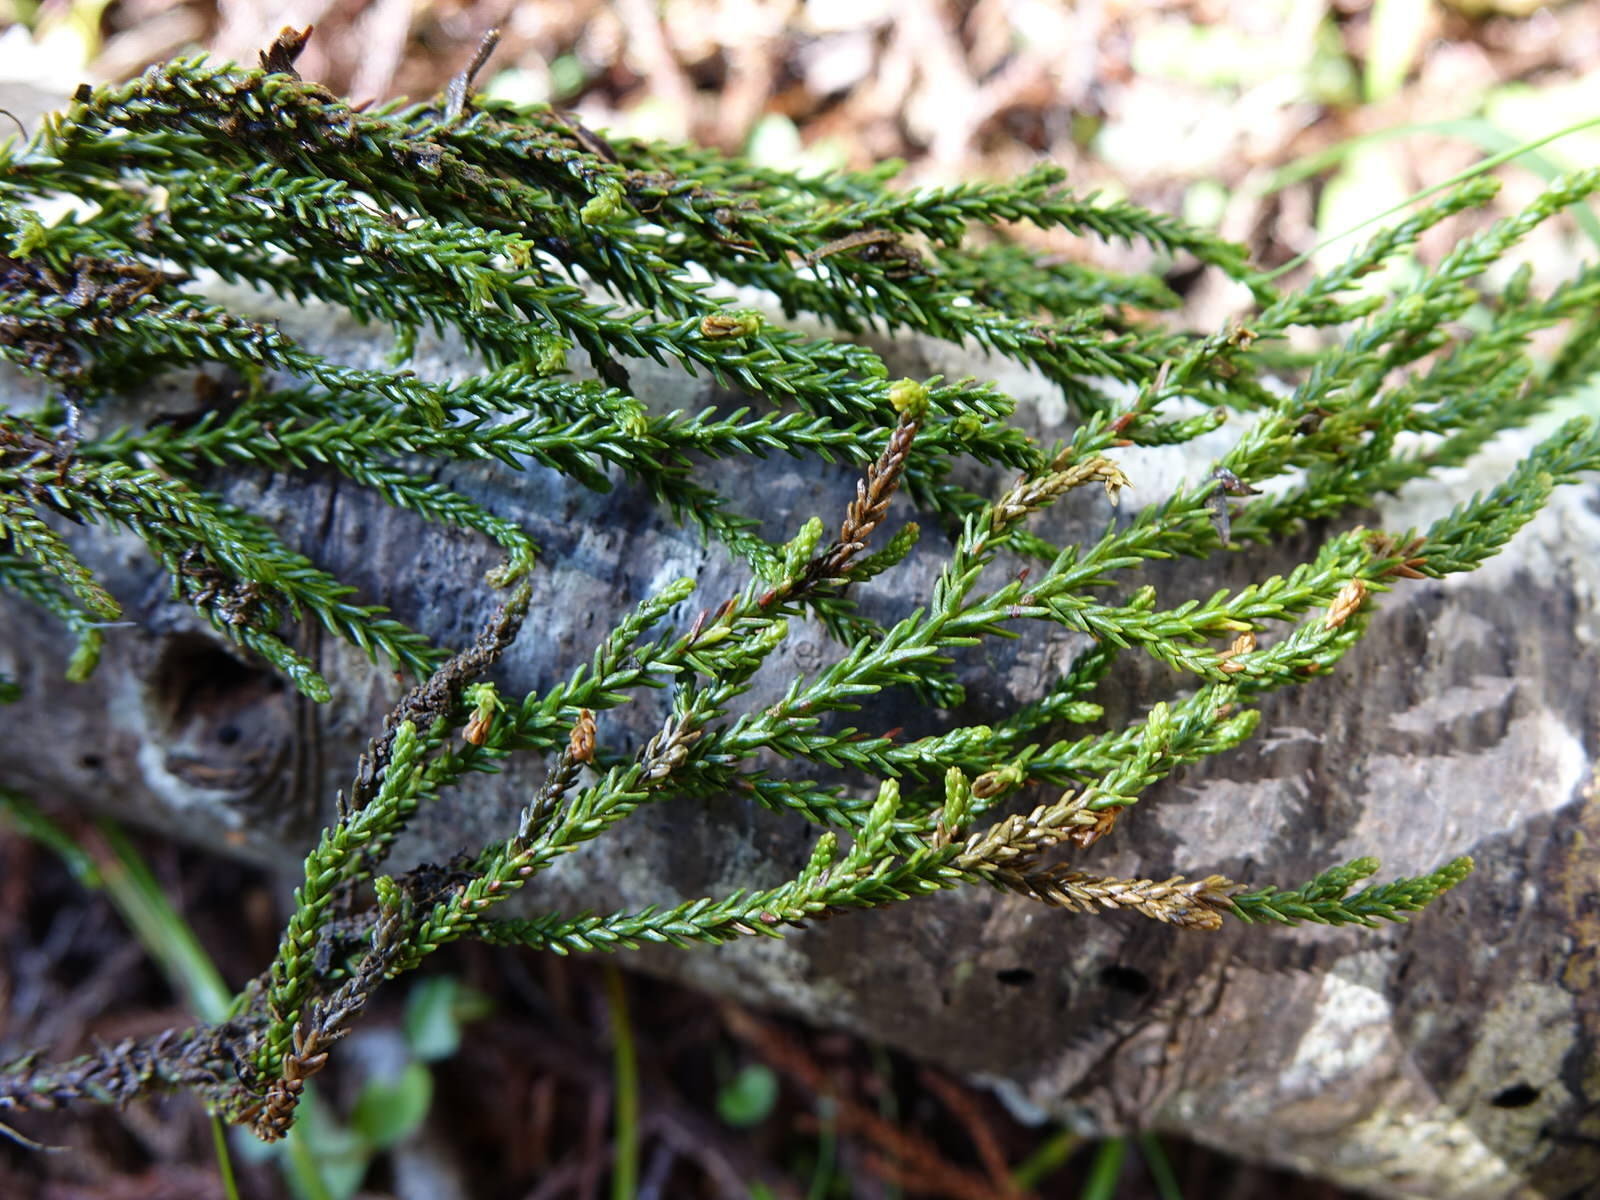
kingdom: Plantae
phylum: Tracheophyta
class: Pinopsida
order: Pinales
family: Podocarpaceae
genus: Dacrydium
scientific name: Dacrydium cupressinum
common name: Red pine
